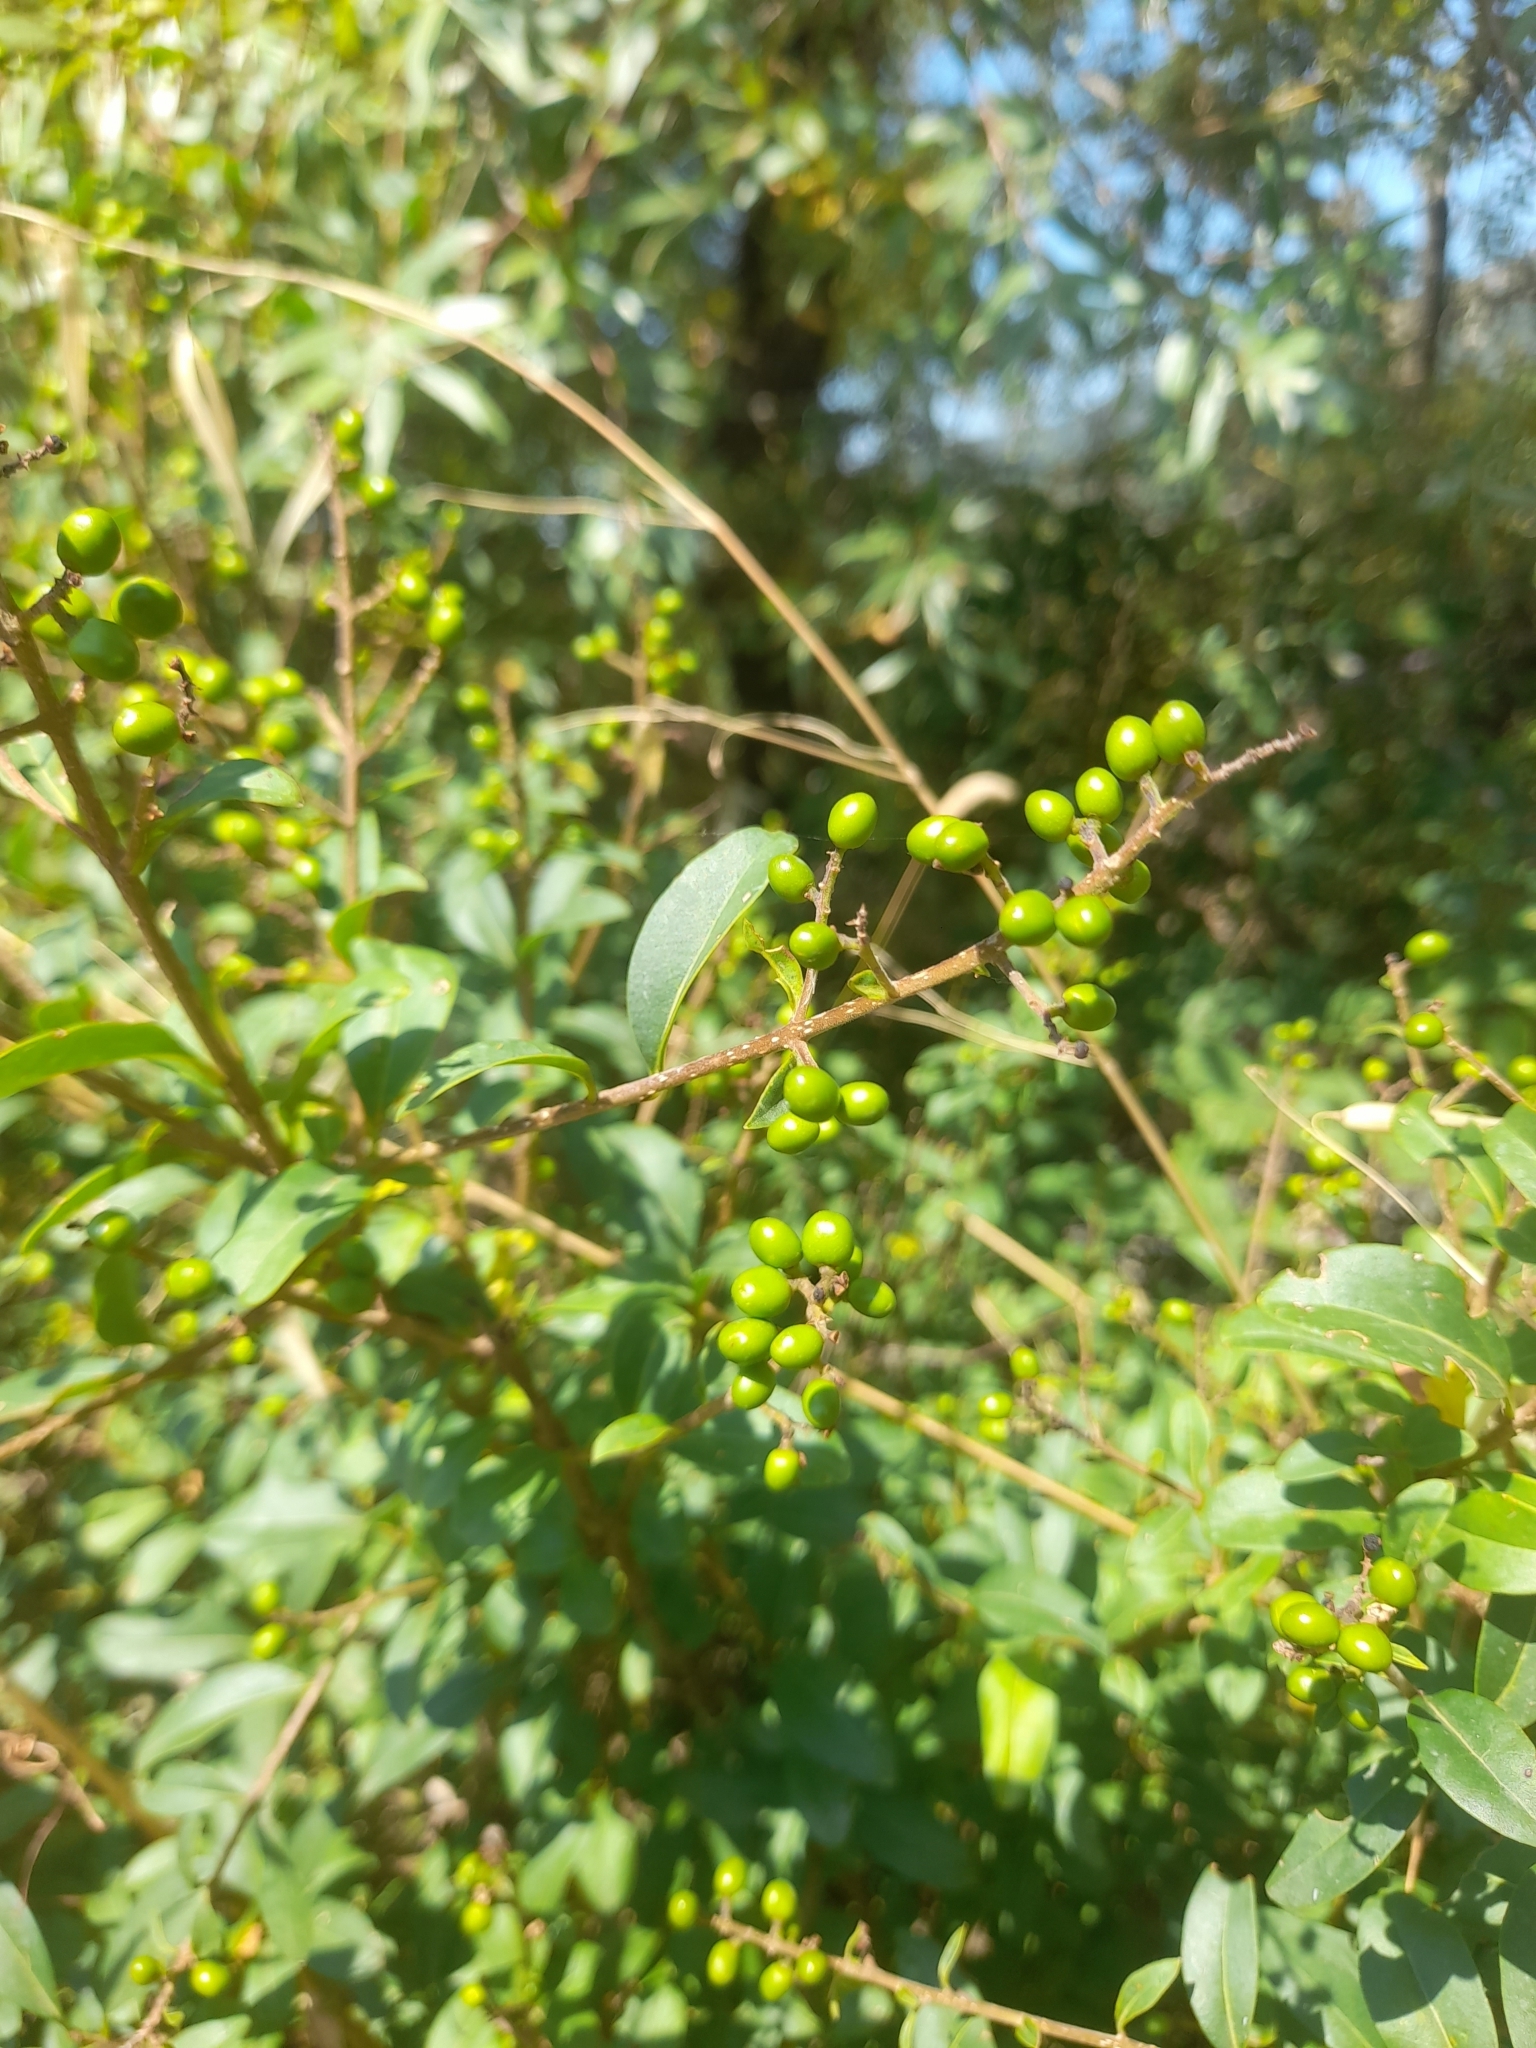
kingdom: Plantae
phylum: Tracheophyta
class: Magnoliopsida
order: Lamiales
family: Oleaceae
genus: Ligustrum
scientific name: Ligustrum vulgare
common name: Wild privet
